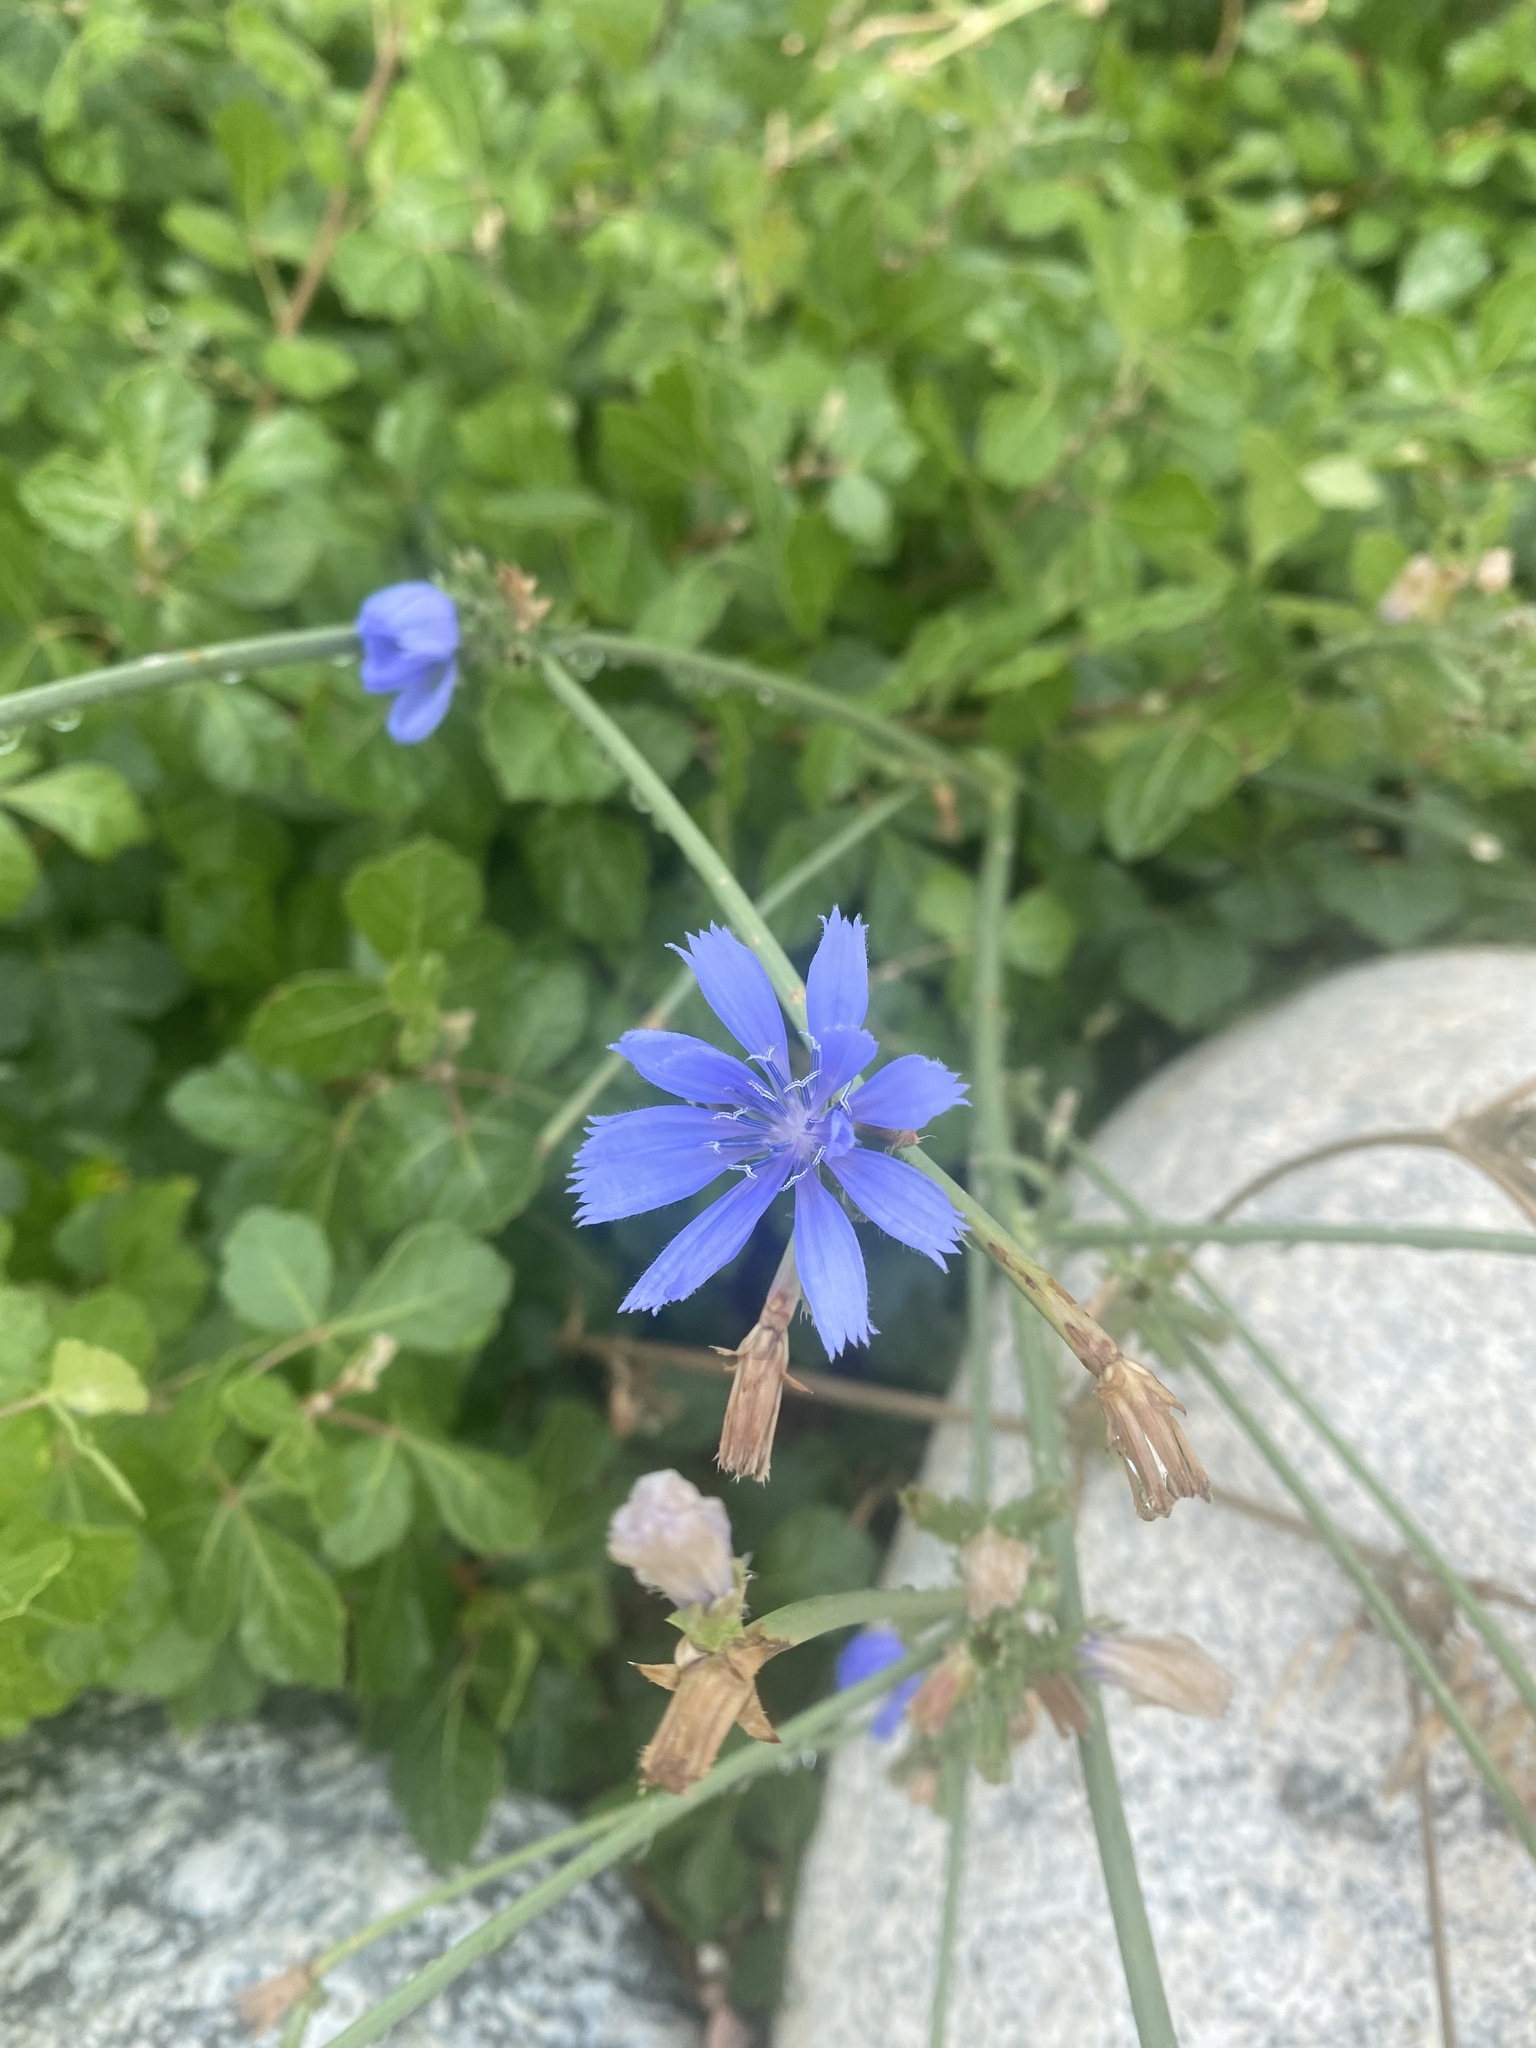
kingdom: Plantae
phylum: Tracheophyta
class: Magnoliopsida
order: Asterales
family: Asteraceae
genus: Cichorium
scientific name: Cichorium intybus
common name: Chicory
